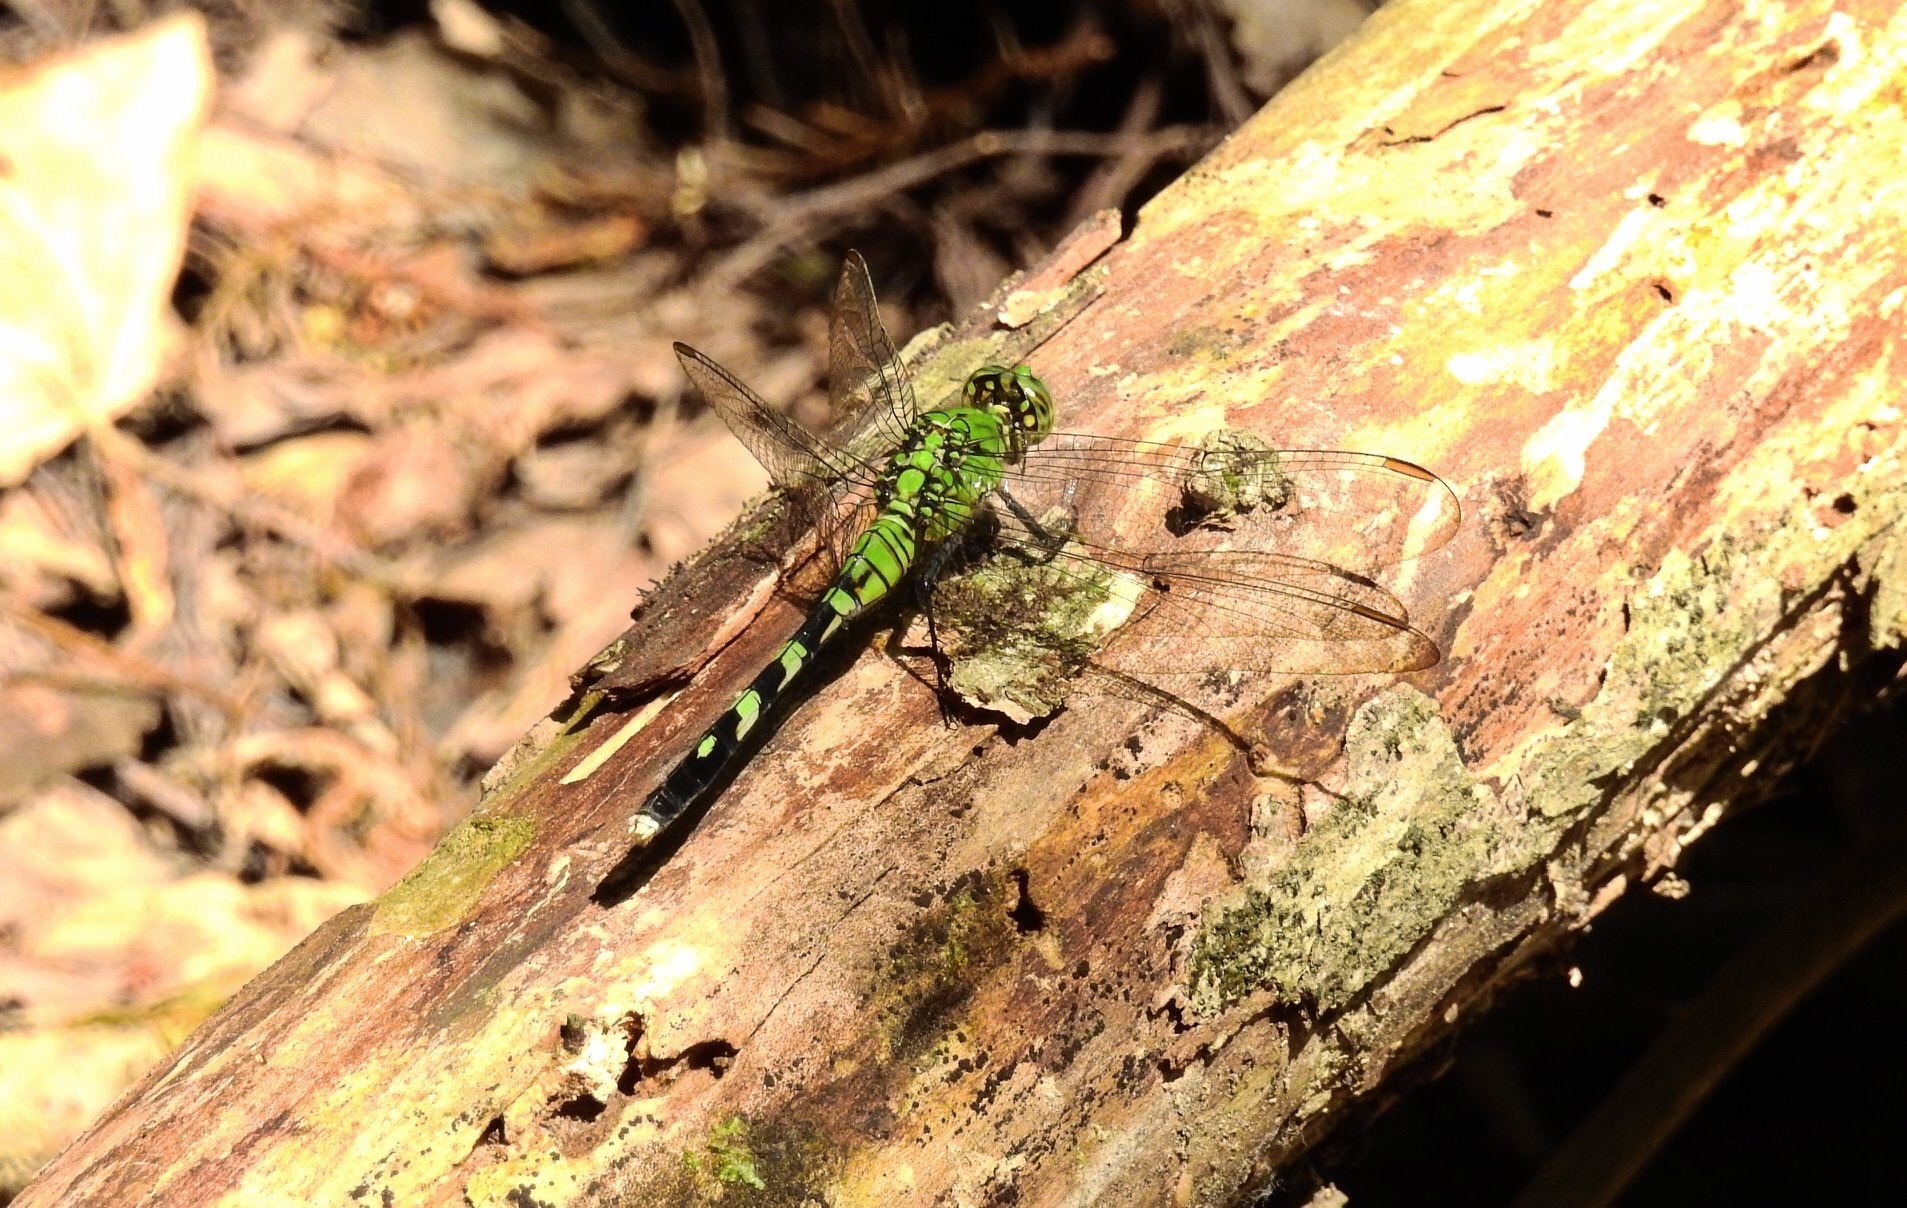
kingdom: Animalia
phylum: Arthropoda
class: Insecta
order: Odonata
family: Libellulidae
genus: Erythemis
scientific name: Erythemis simplicicollis
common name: Eastern pondhawk
